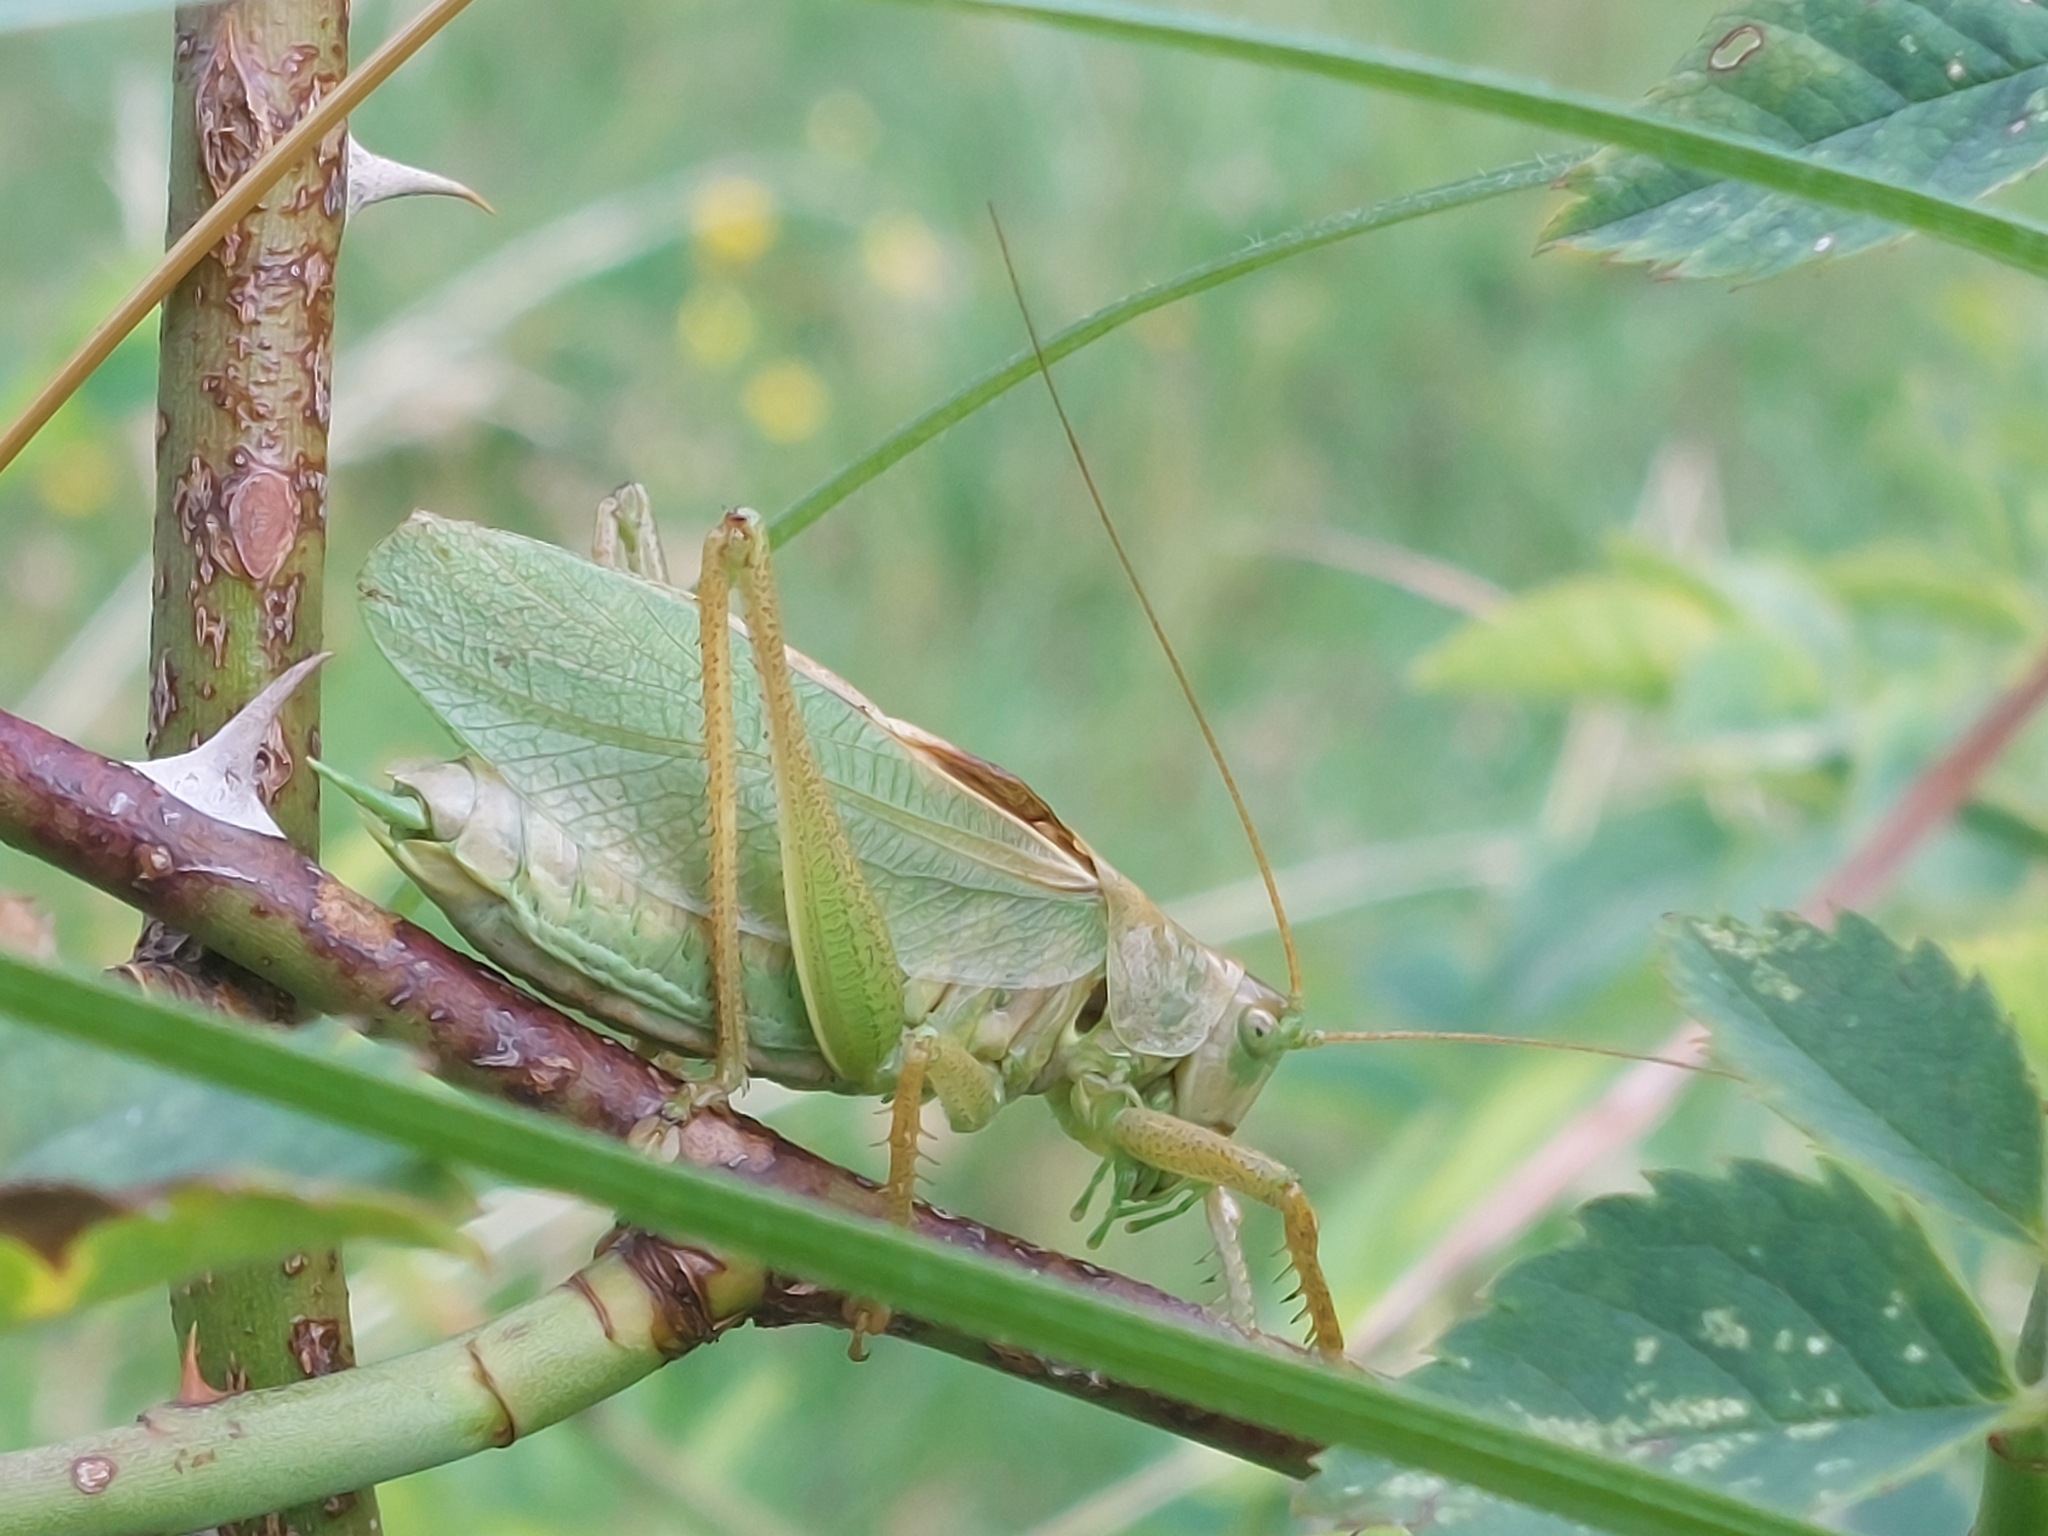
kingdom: Animalia
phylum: Arthropoda
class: Insecta
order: Orthoptera
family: Tettigoniidae
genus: Tettigonia
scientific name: Tettigonia cantans
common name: Upland green bush-cricket
